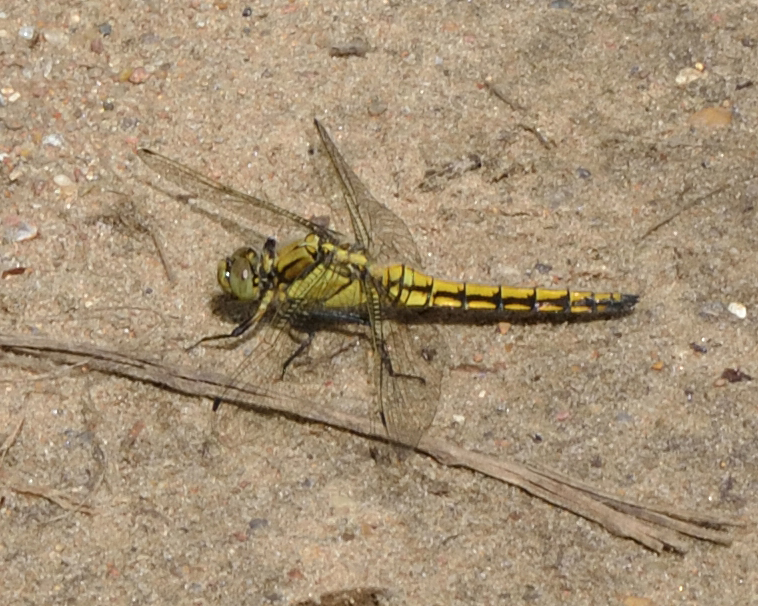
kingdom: Animalia
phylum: Arthropoda
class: Insecta
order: Odonata
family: Libellulidae
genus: Orthetrum
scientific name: Orthetrum cancellatum
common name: Black-tailed skimmer
